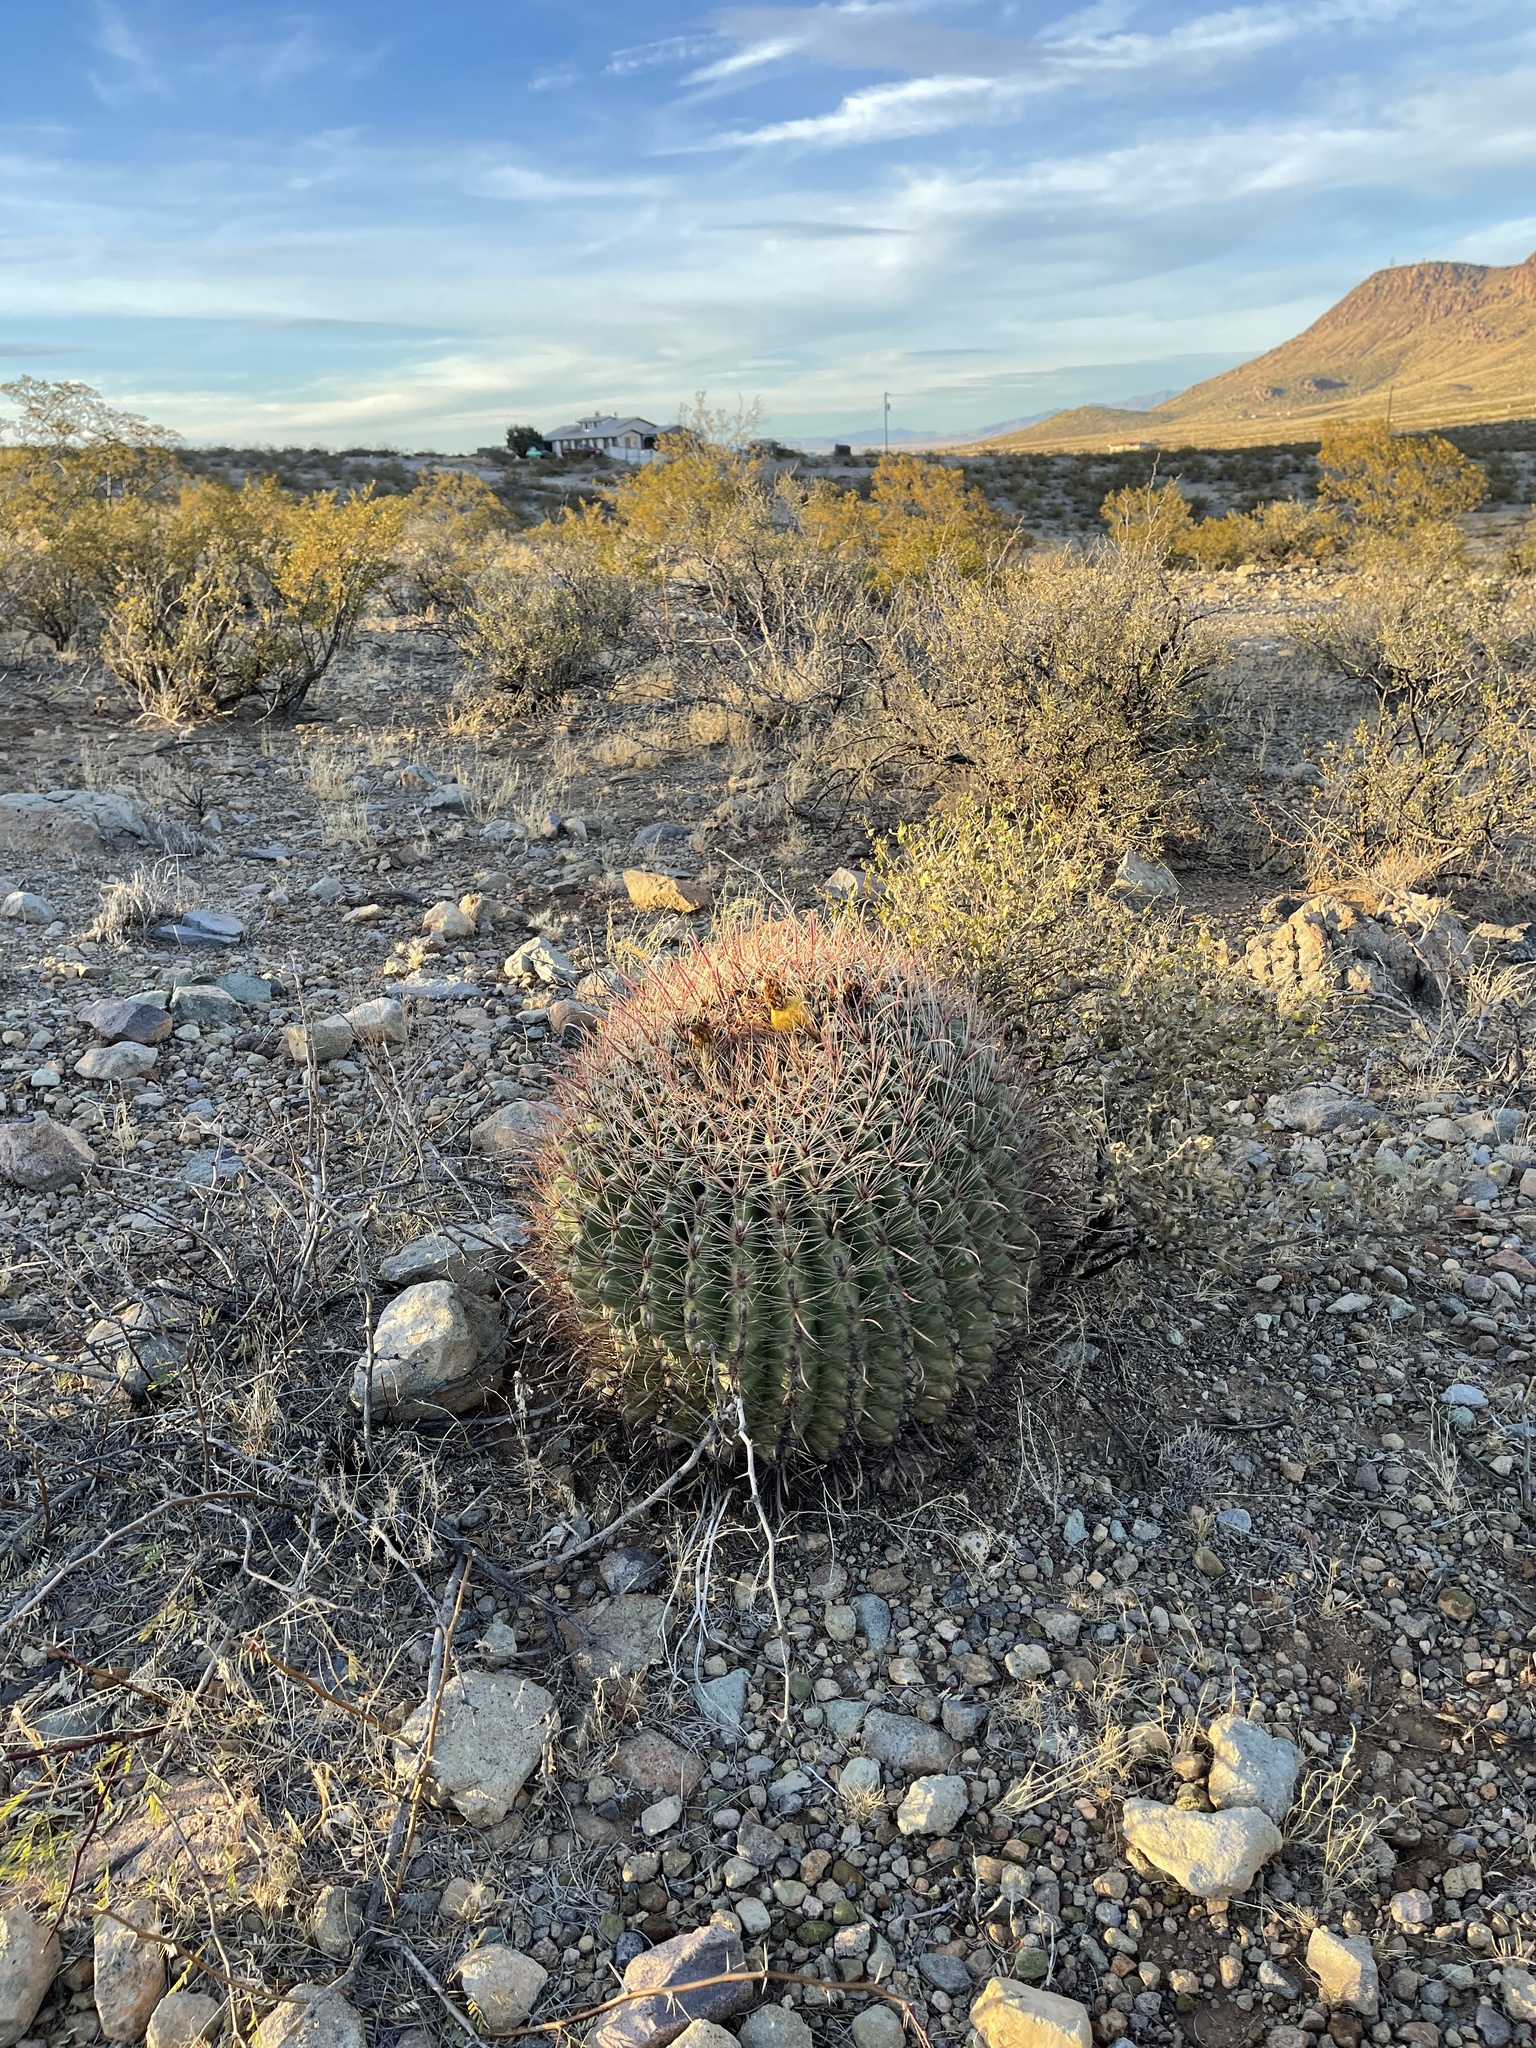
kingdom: Plantae
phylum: Tracheophyta
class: Magnoliopsida
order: Caryophyllales
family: Cactaceae
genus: Ferocactus
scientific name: Ferocactus wislizeni
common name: Candy barrel cactus
